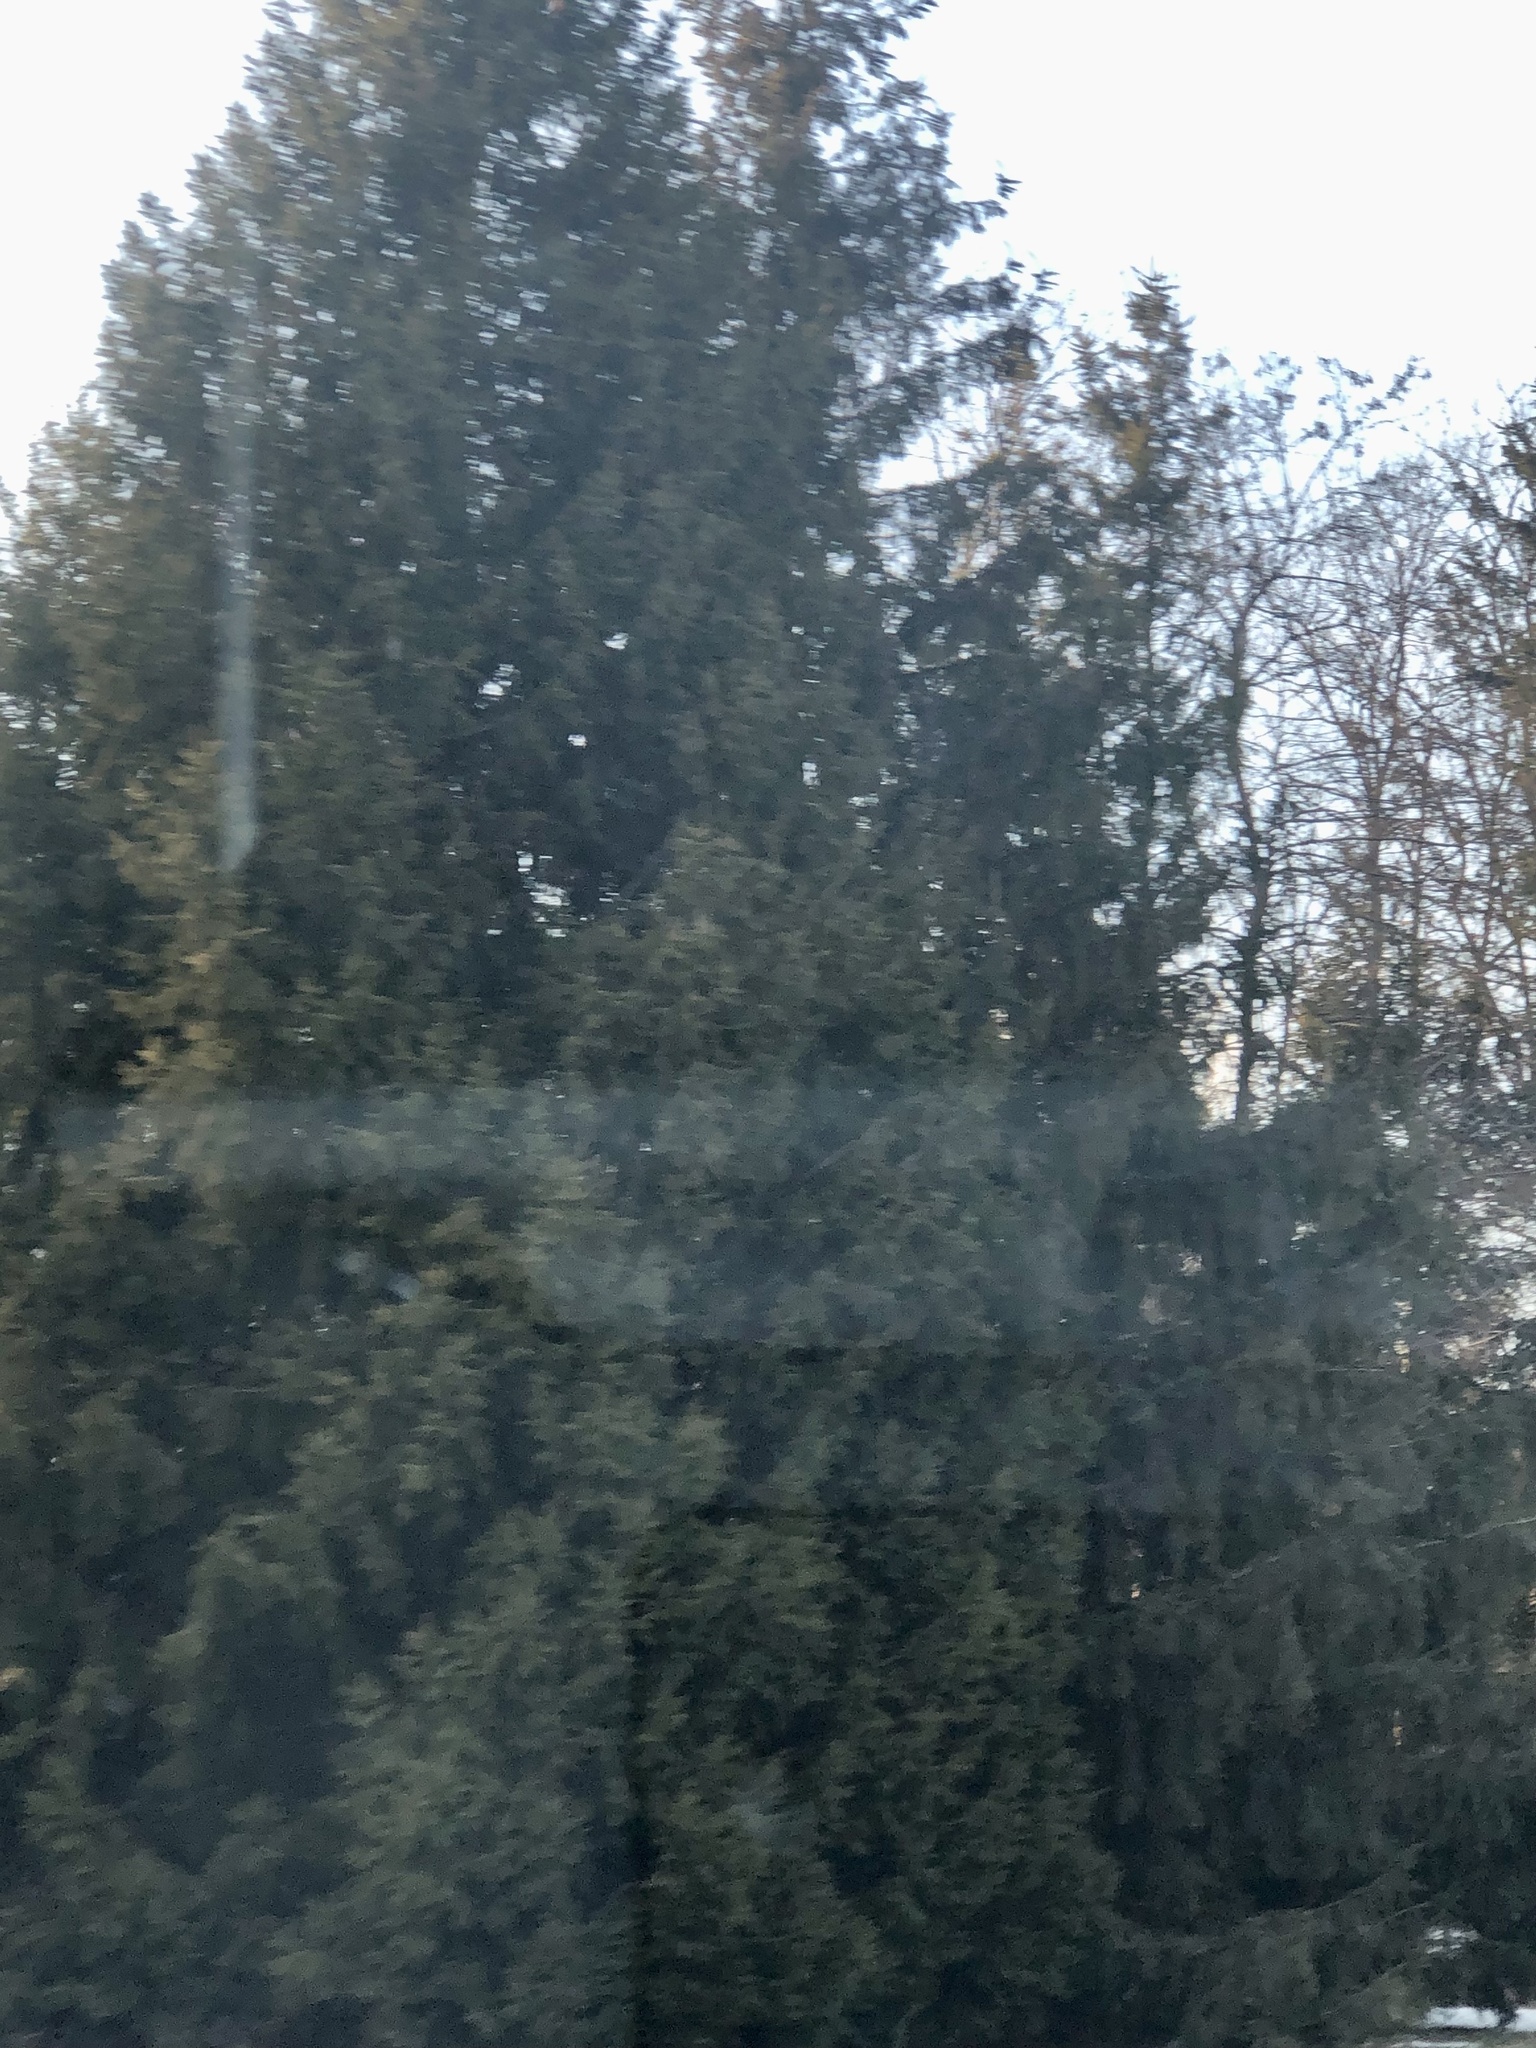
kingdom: Plantae
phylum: Tracheophyta
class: Pinopsida
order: Pinales
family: Cupressaceae
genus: Thuja
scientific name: Thuja occidentalis
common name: Northern white-cedar
